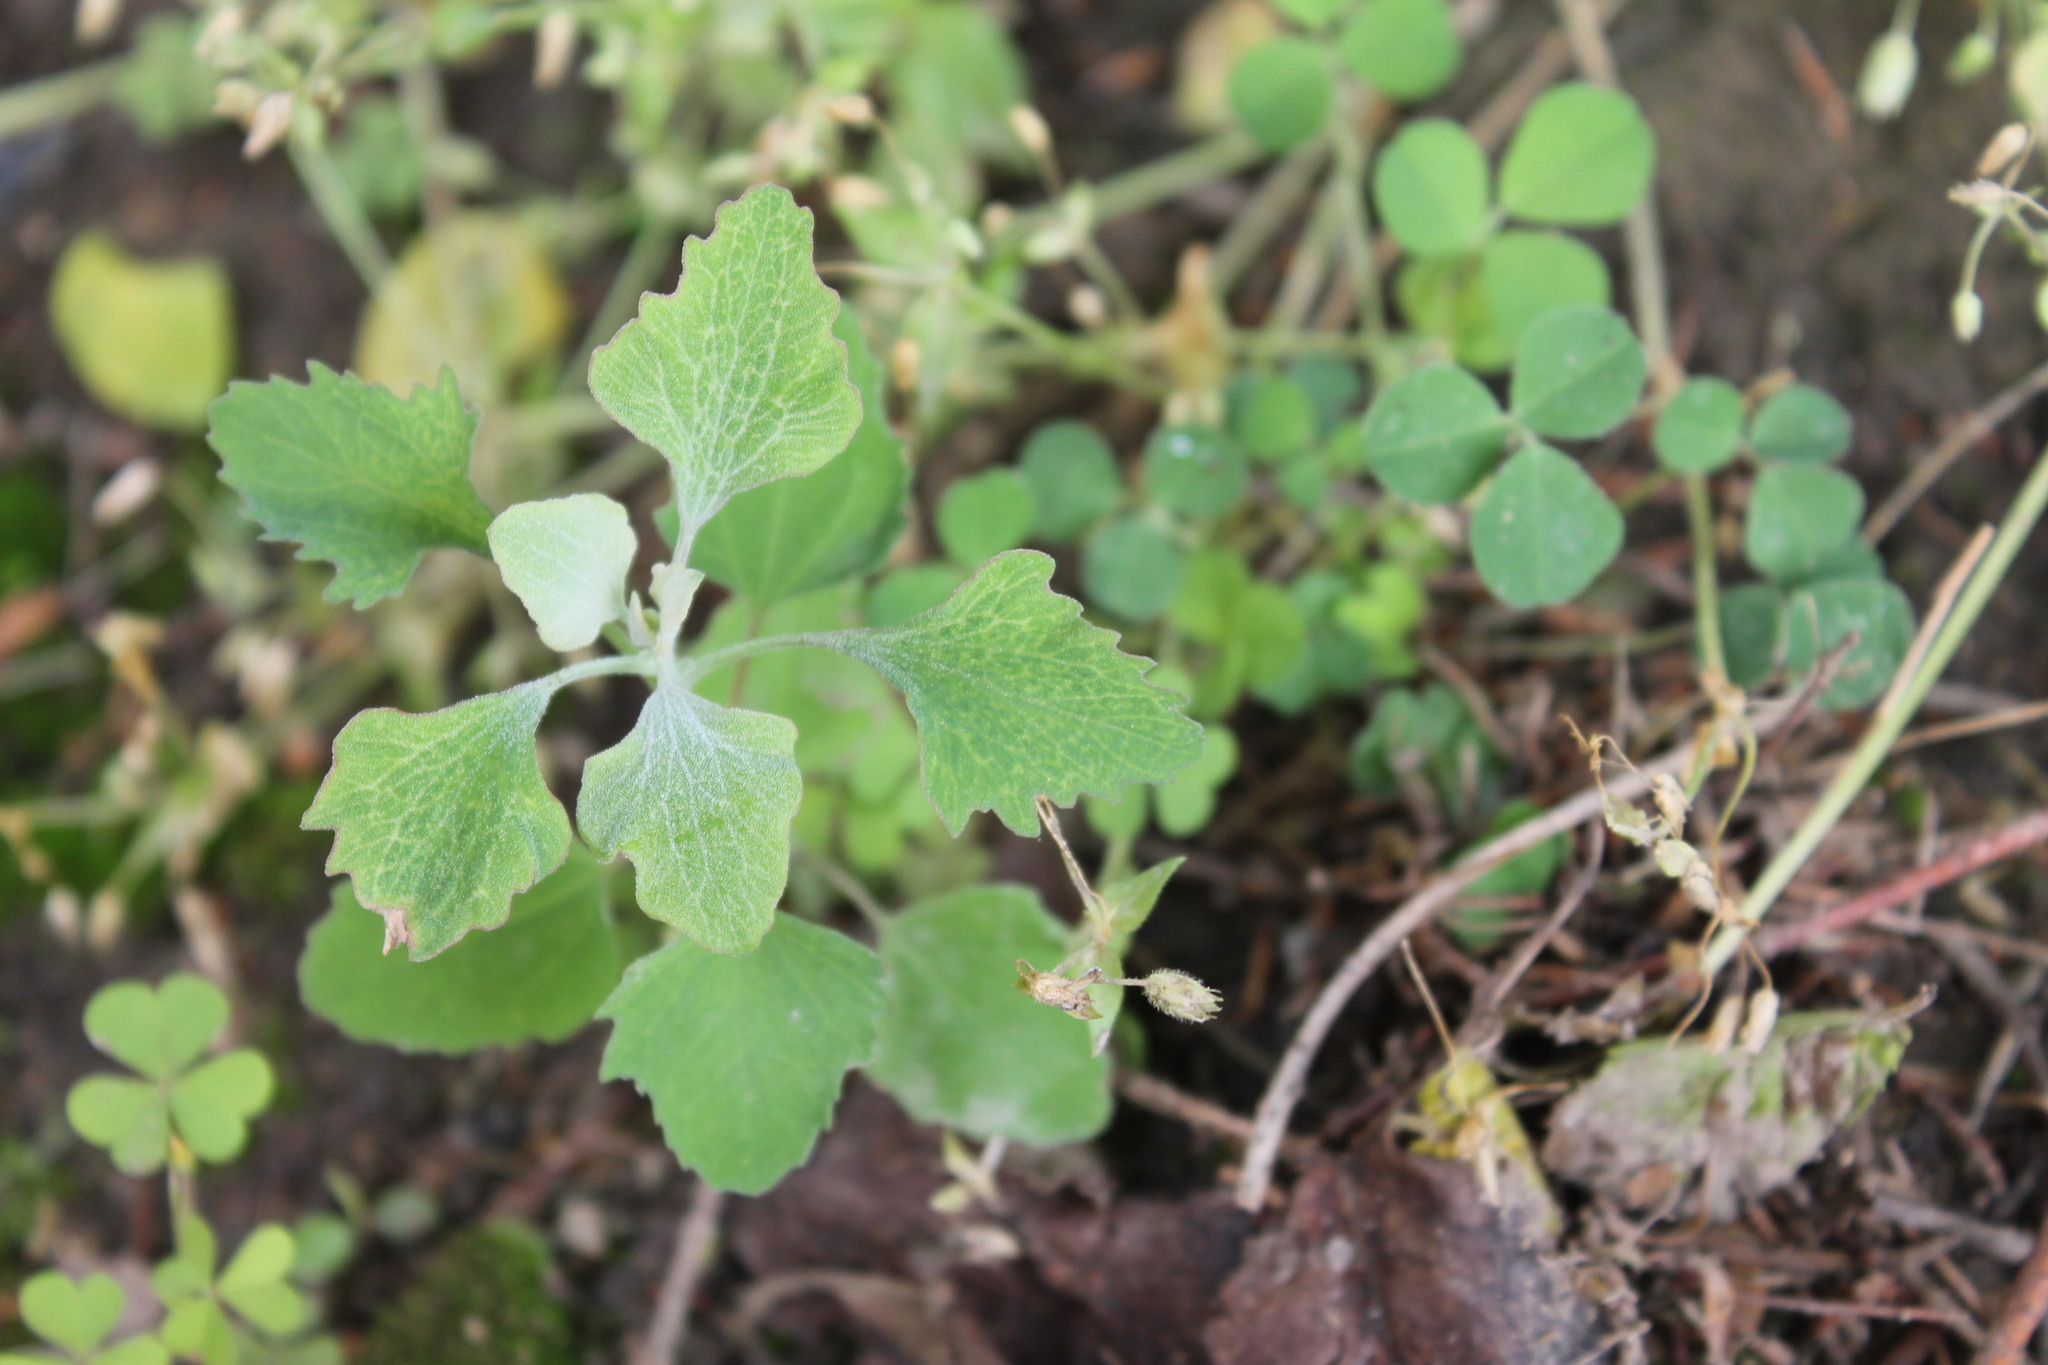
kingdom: Plantae
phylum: Tracheophyta
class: Magnoliopsida
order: Caryophyllales
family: Amaranthaceae
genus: Chenopodium
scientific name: Chenopodium album
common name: Fat-hen
